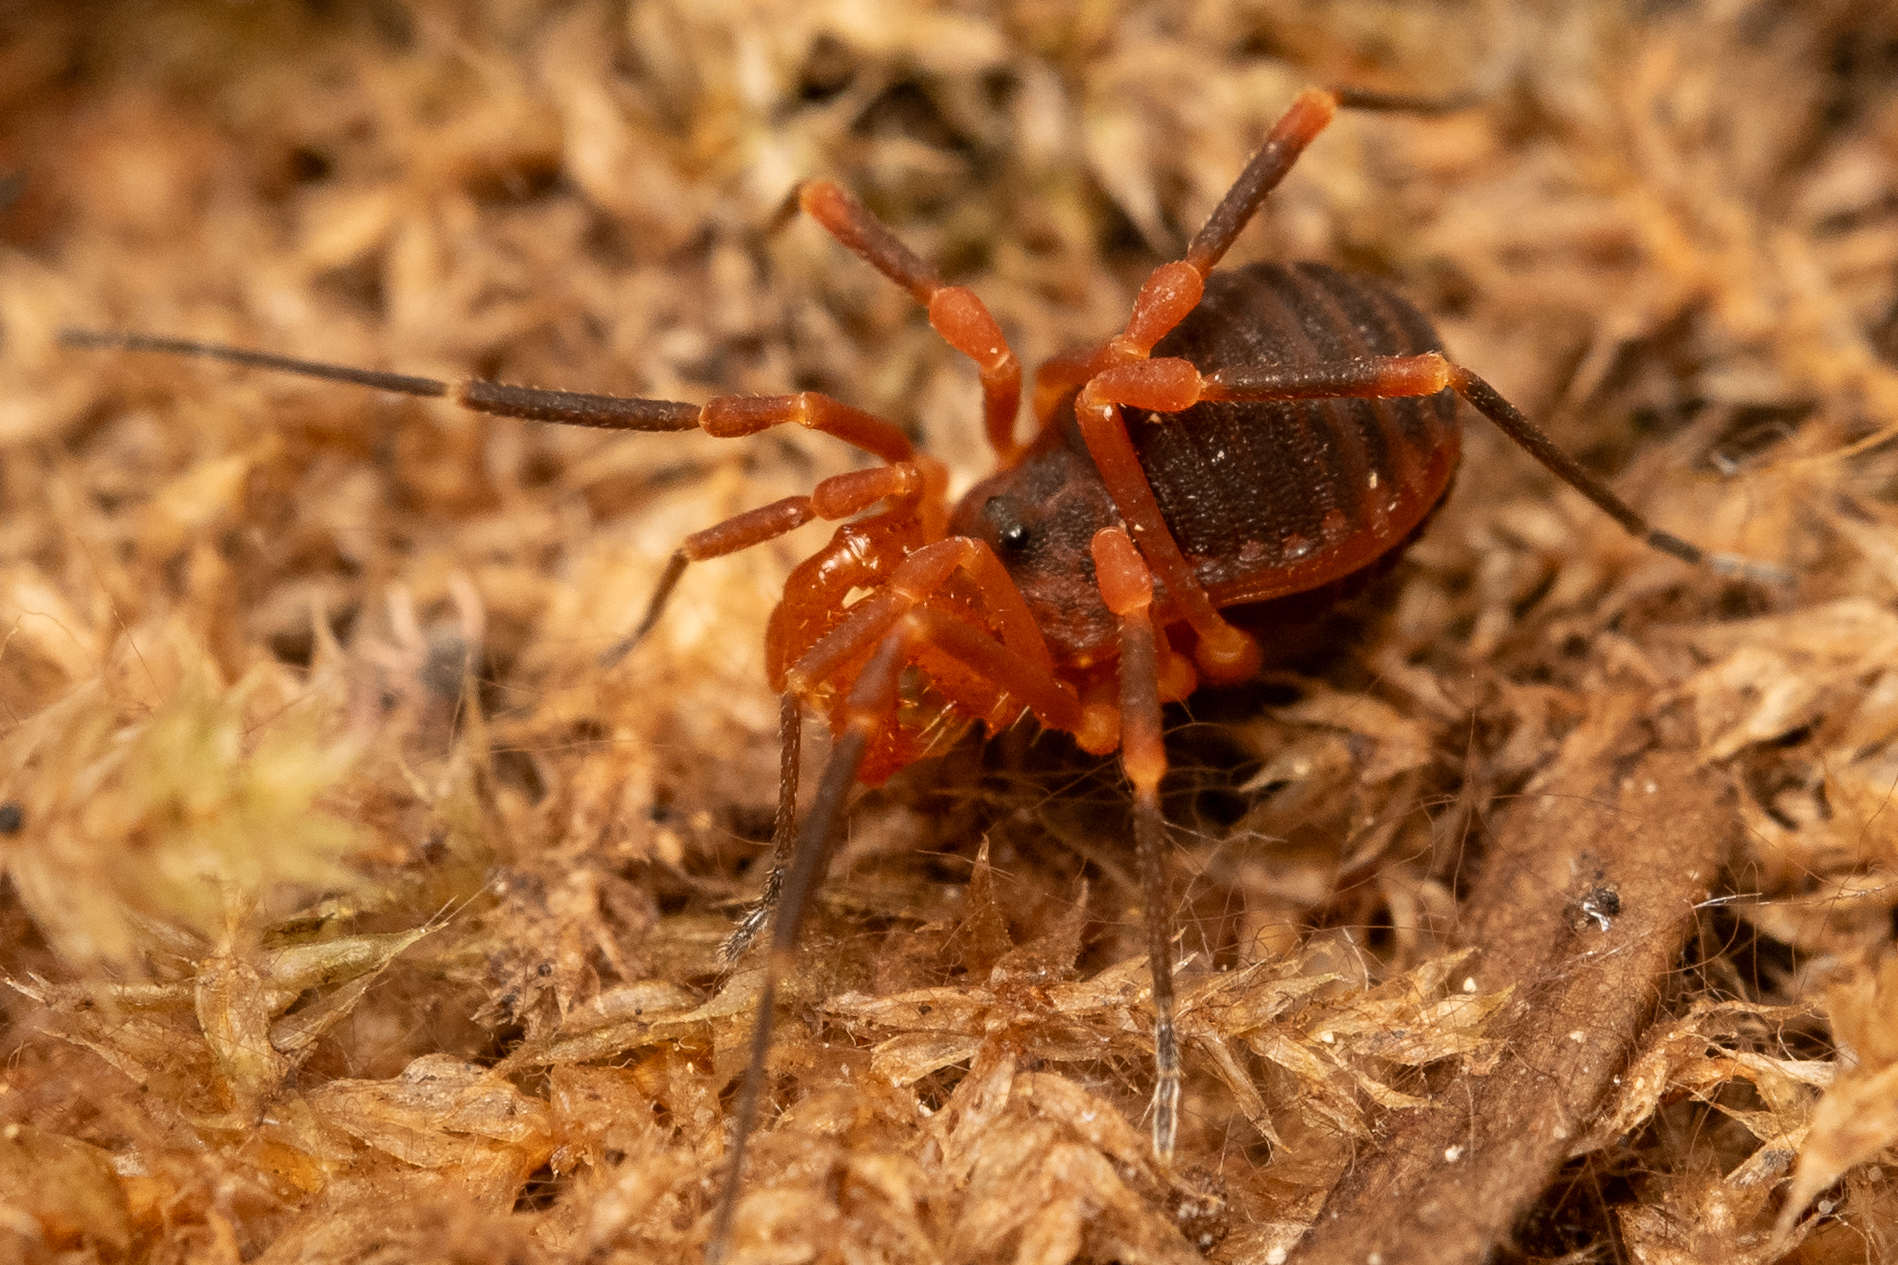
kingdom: Animalia
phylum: Arthropoda
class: Arachnida
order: Opiliones
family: Paranonychidae
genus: Sclerobunus
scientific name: Sclerobunus idahoensis
